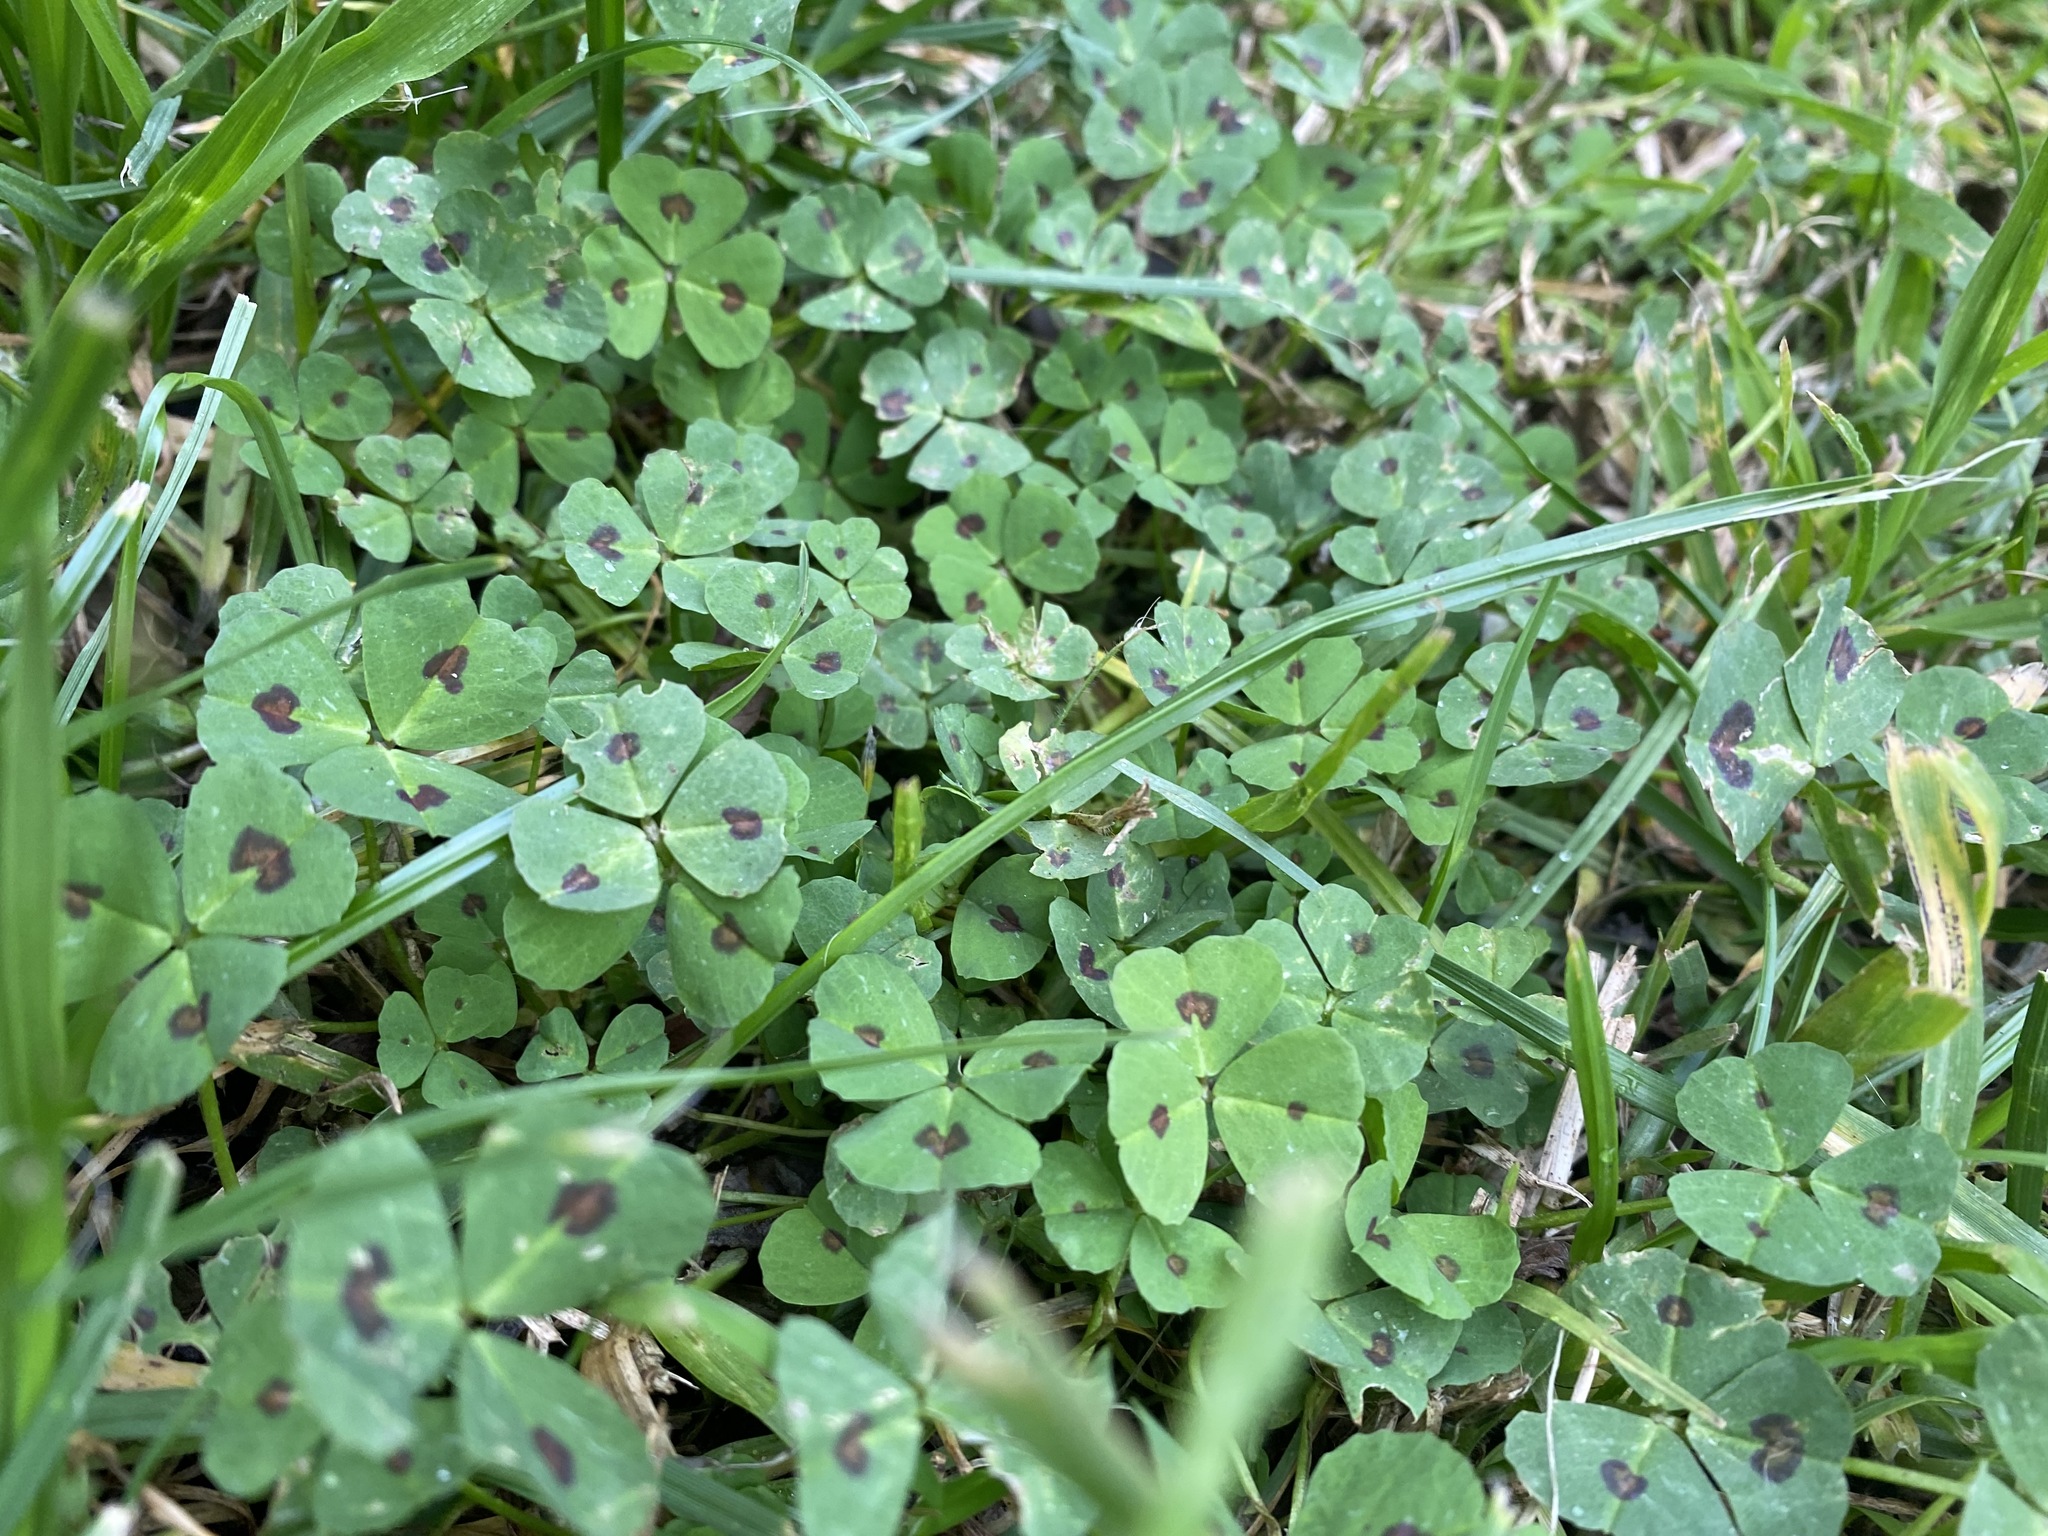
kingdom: Plantae
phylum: Tracheophyta
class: Magnoliopsida
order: Fabales
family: Fabaceae
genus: Medicago
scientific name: Medicago arabica
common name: Spotted medick
